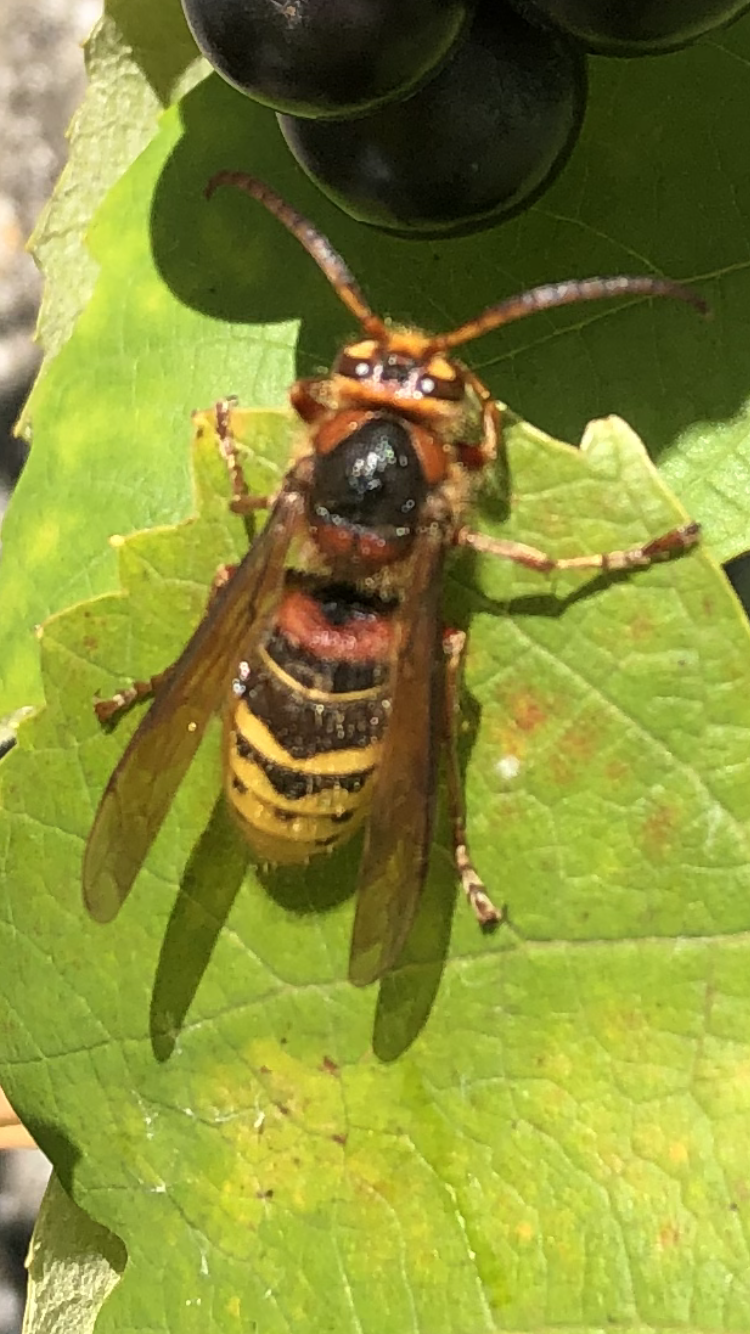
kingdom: Animalia
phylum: Arthropoda
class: Insecta
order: Hymenoptera
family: Vespidae
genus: Vespa
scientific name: Vespa crabro
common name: Hornet
